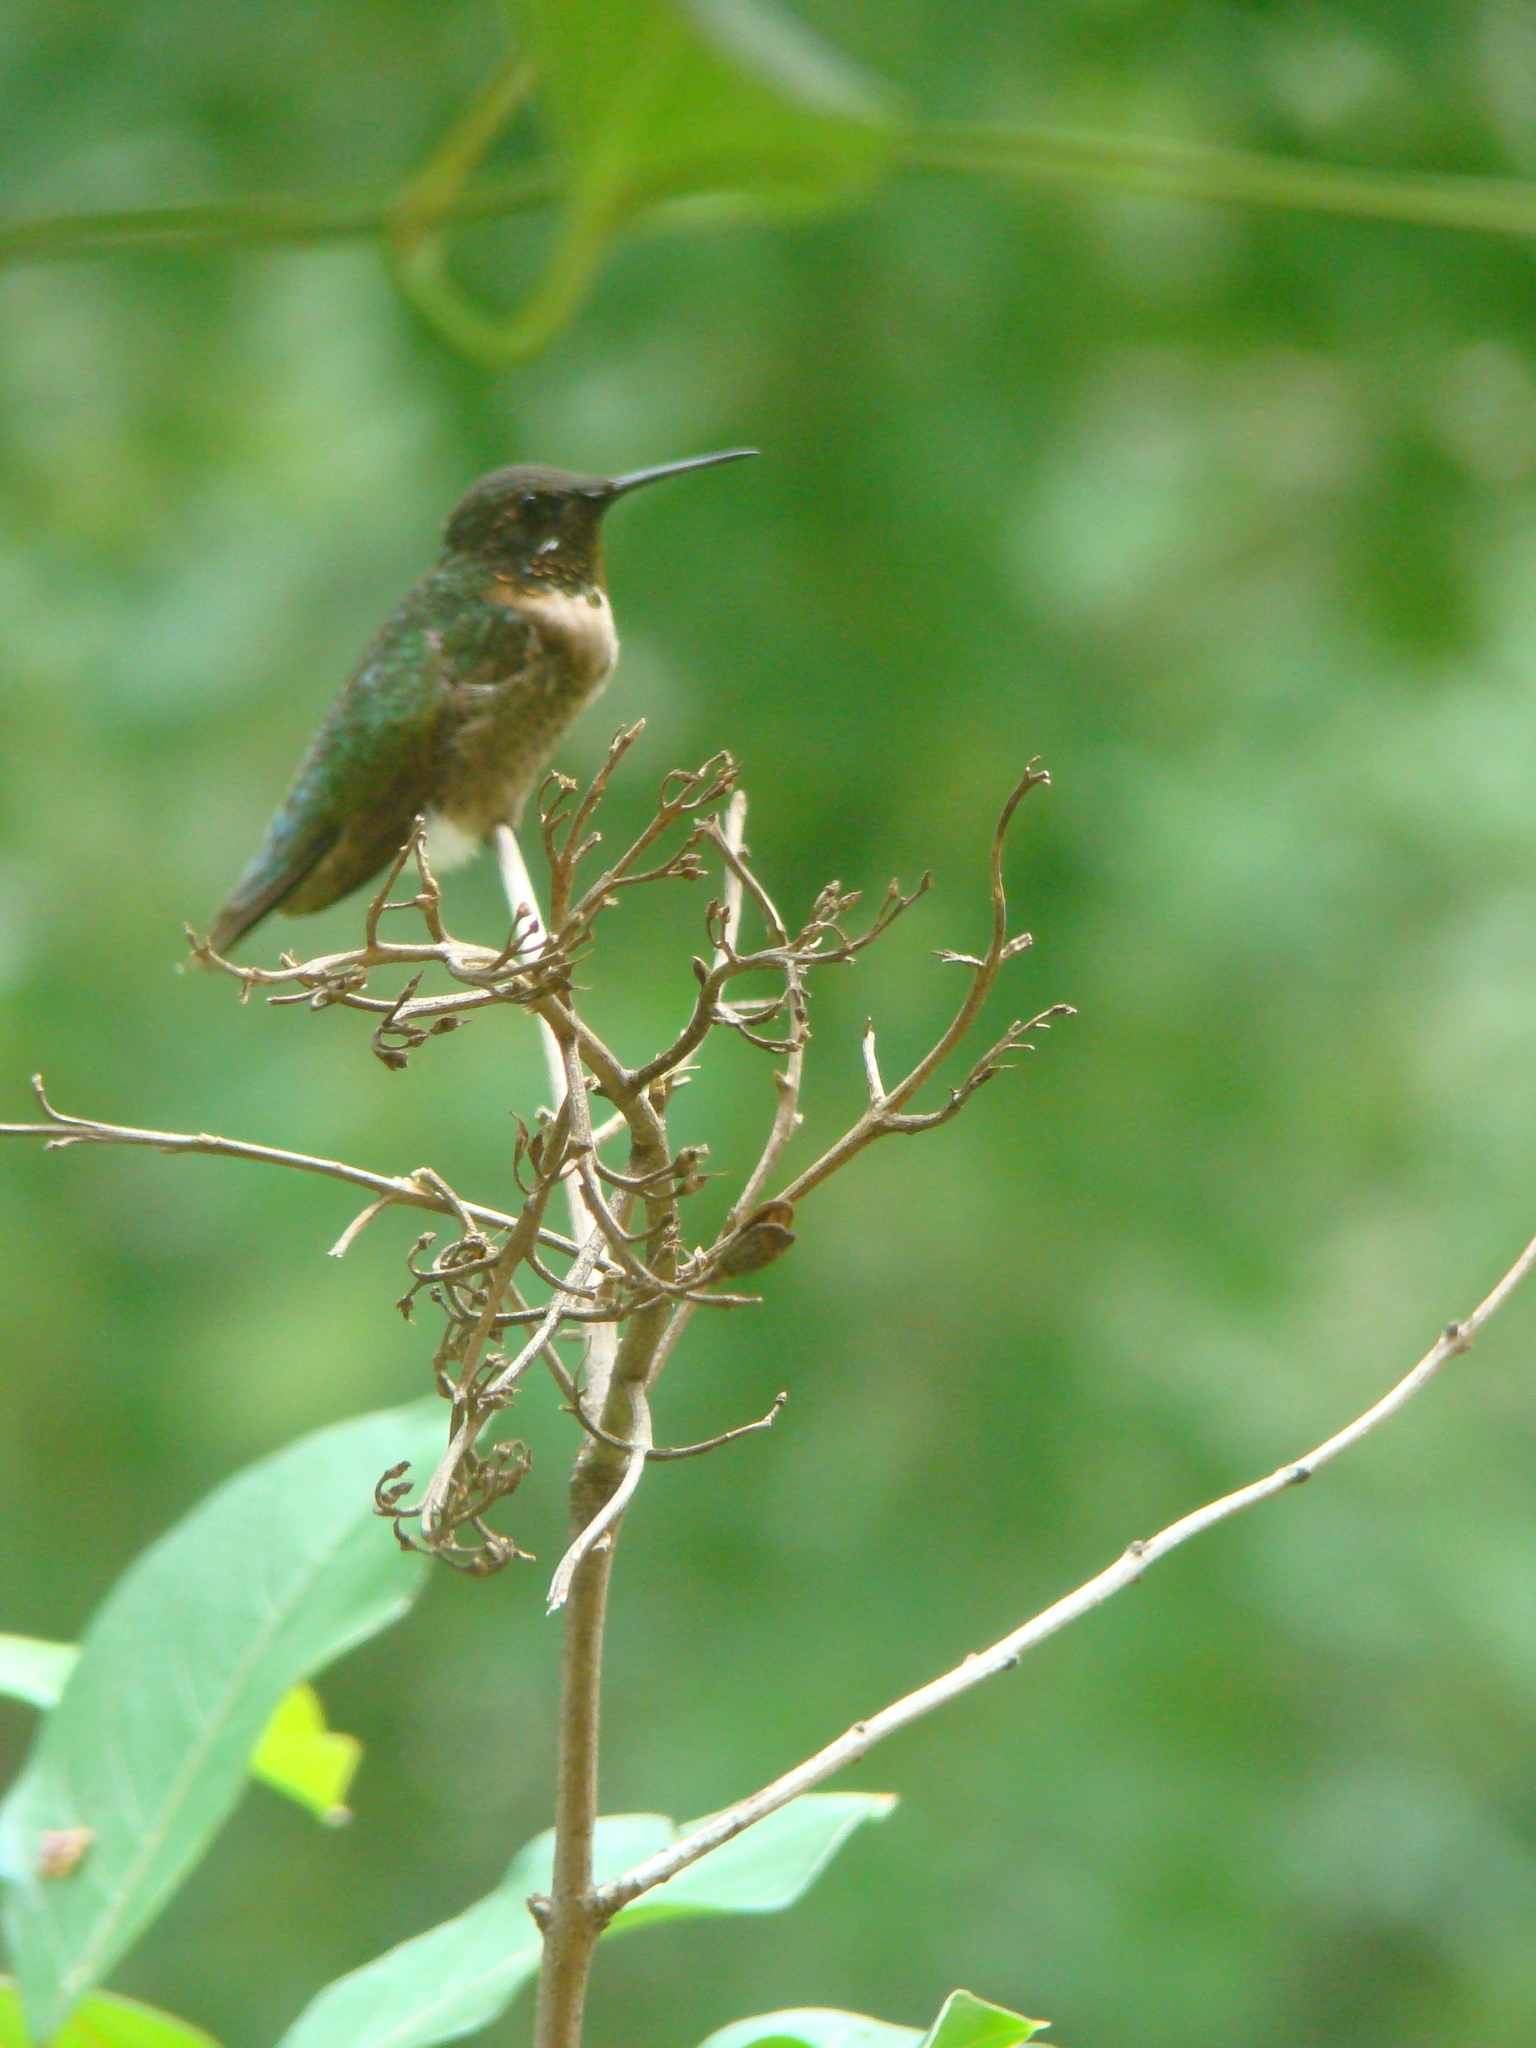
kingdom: Animalia
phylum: Chordata
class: Aves
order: Apodiformes
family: Trochilidae
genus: Archilochus
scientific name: Archilochus colubris
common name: Ruby-throated hummingbird
